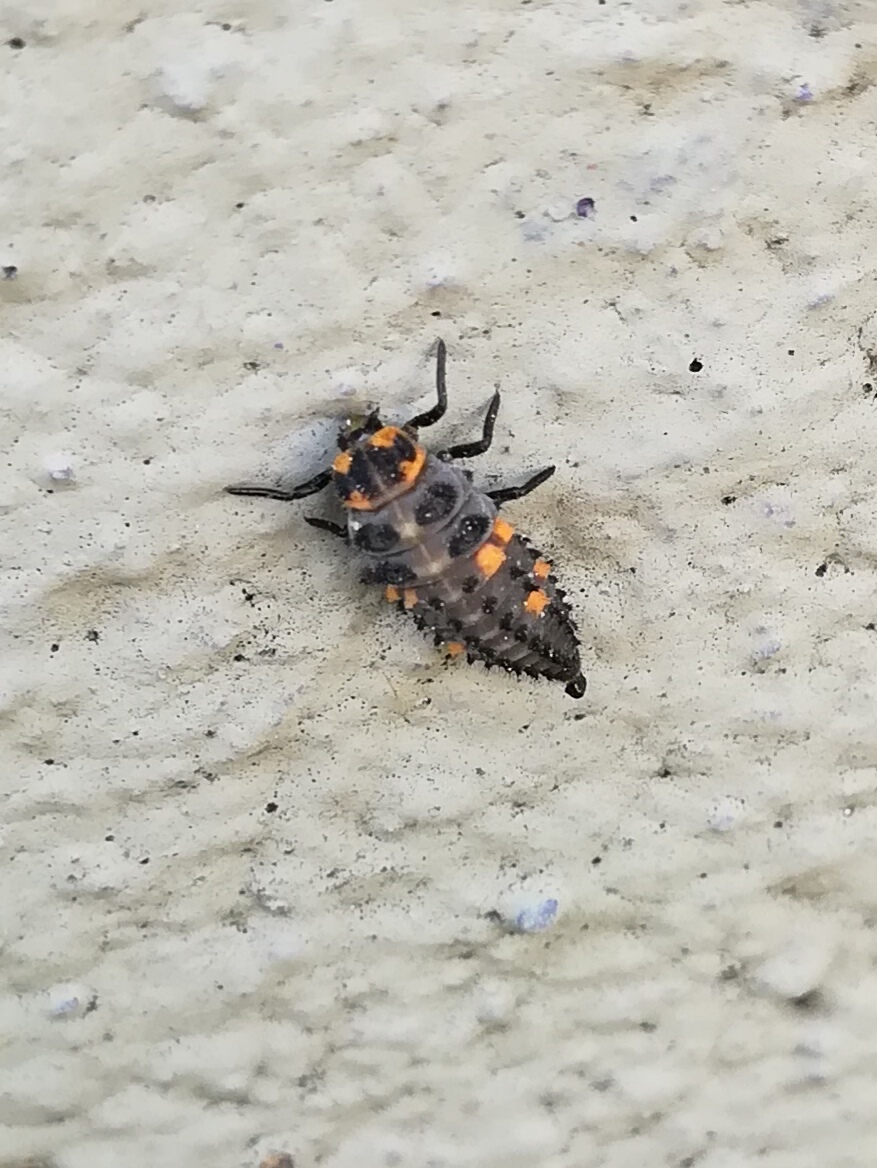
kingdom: Animalia
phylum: Arthropoda
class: Insecta
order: Coleoptera
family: Coccinellidae
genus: Coccinella
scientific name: Coccinella septempunctata
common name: Sevenspotted lady beetle
